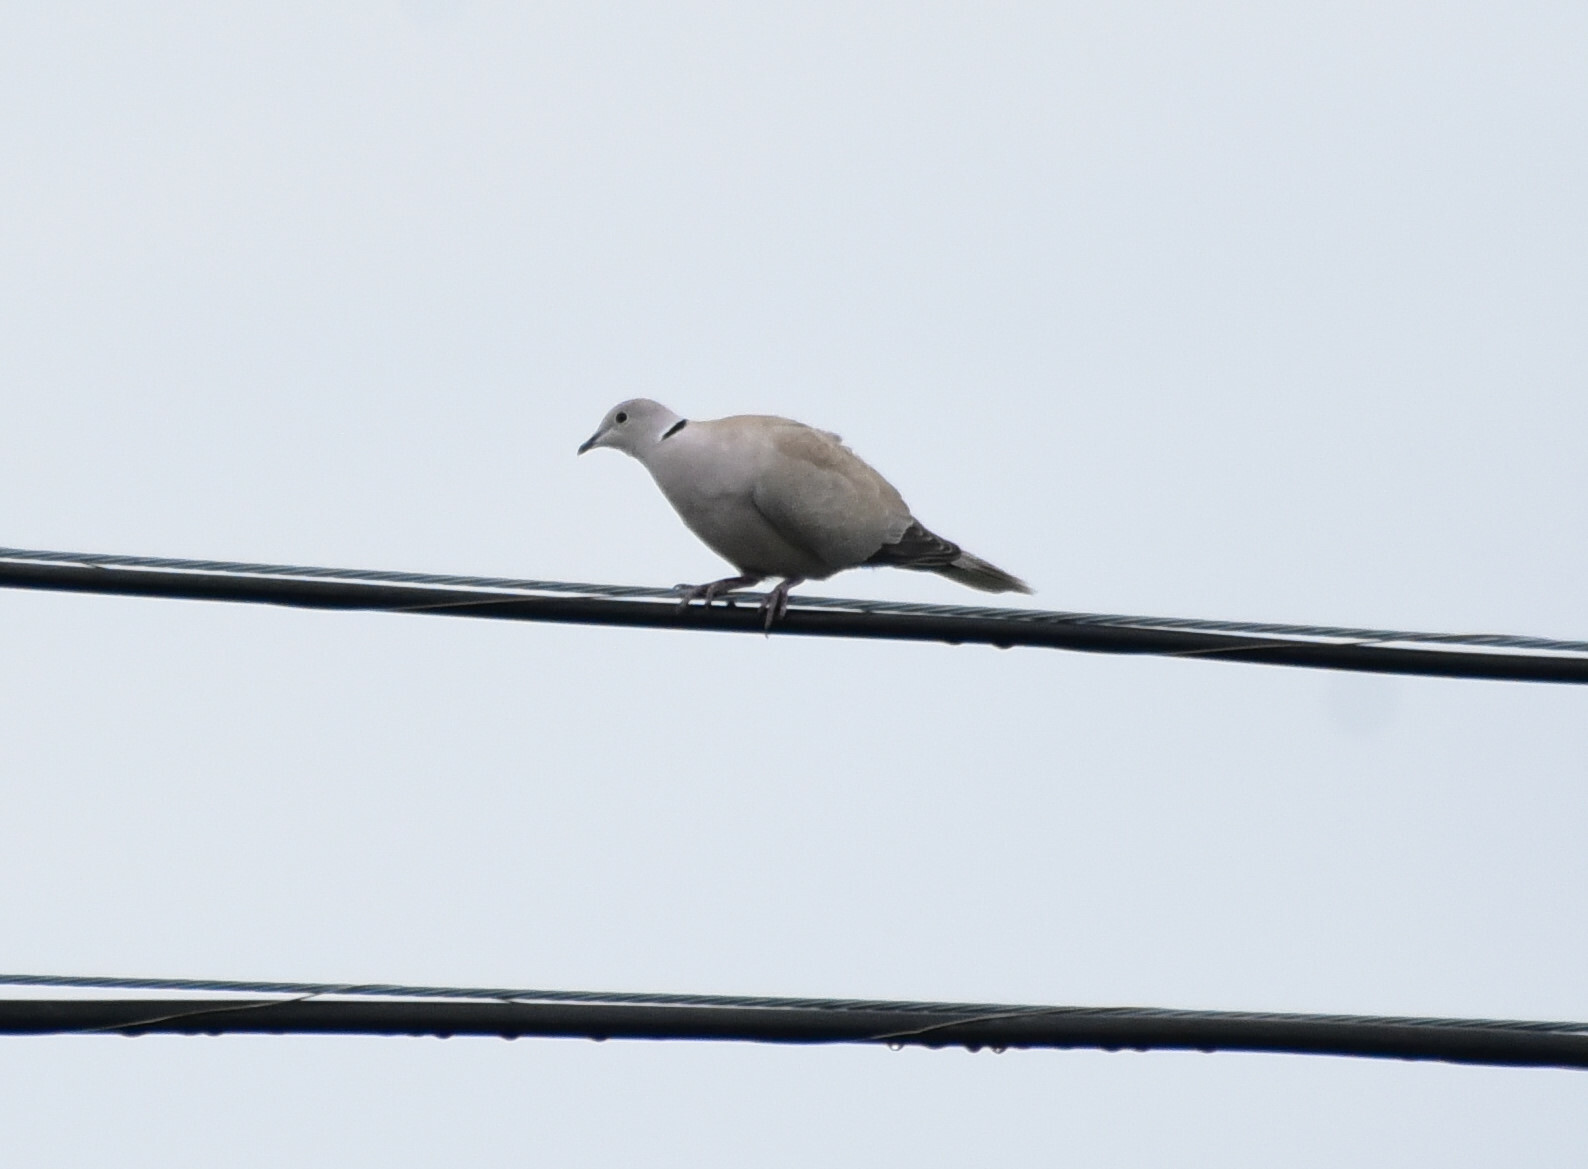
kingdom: Animalia
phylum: Chordata
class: Aves
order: Columbiformes
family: Columbidae
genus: Streptopelia
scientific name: Streptopelia decaocto
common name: Eurasian collared dove
